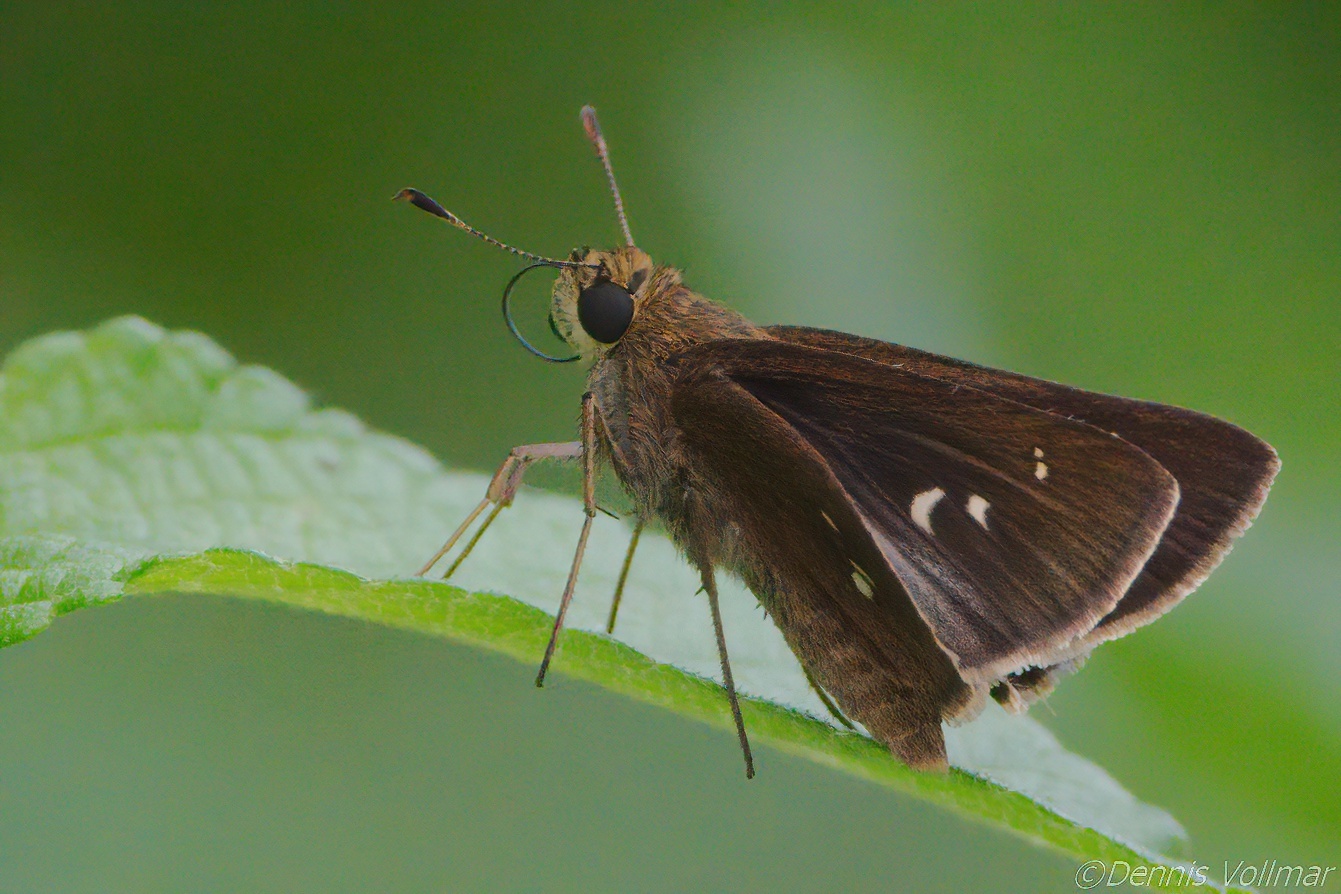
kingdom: Animalia
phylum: Arthropoda
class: Insecta
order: Lepidoptera
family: Hesperiidae
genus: Oligoria
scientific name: Oligoria maculata
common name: Twin-spot skipper
